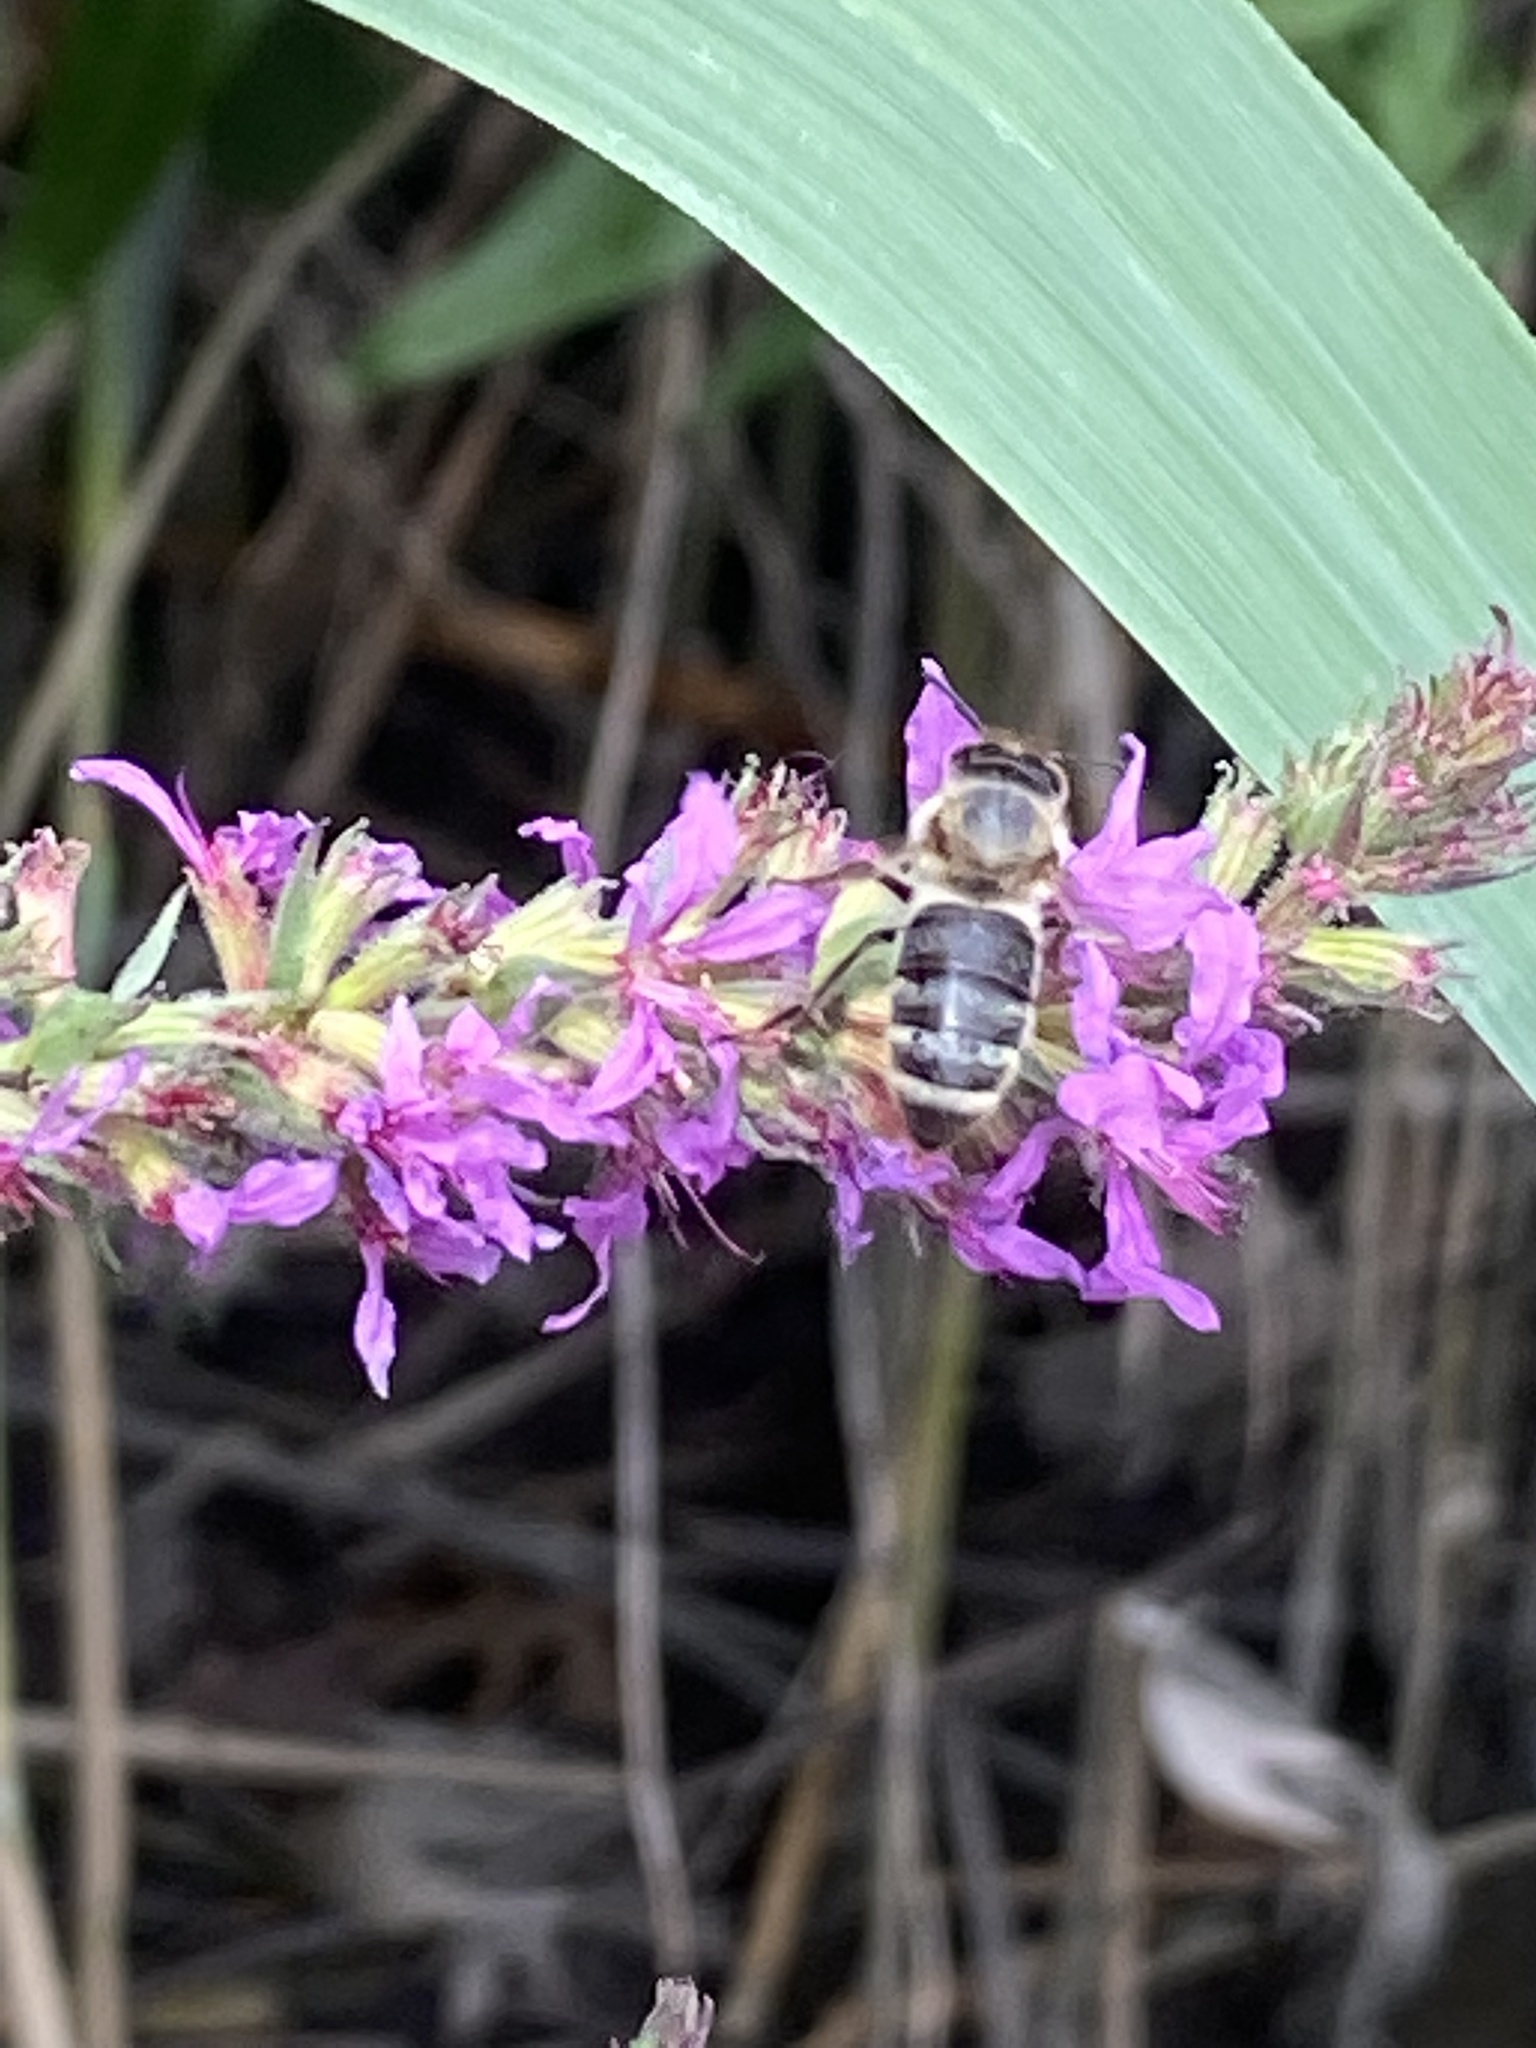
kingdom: Animalia
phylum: Arthropoda
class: Insecta
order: Hymenoptera
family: Apidae
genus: Apis
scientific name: Apis mellifera
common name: Honey bee
